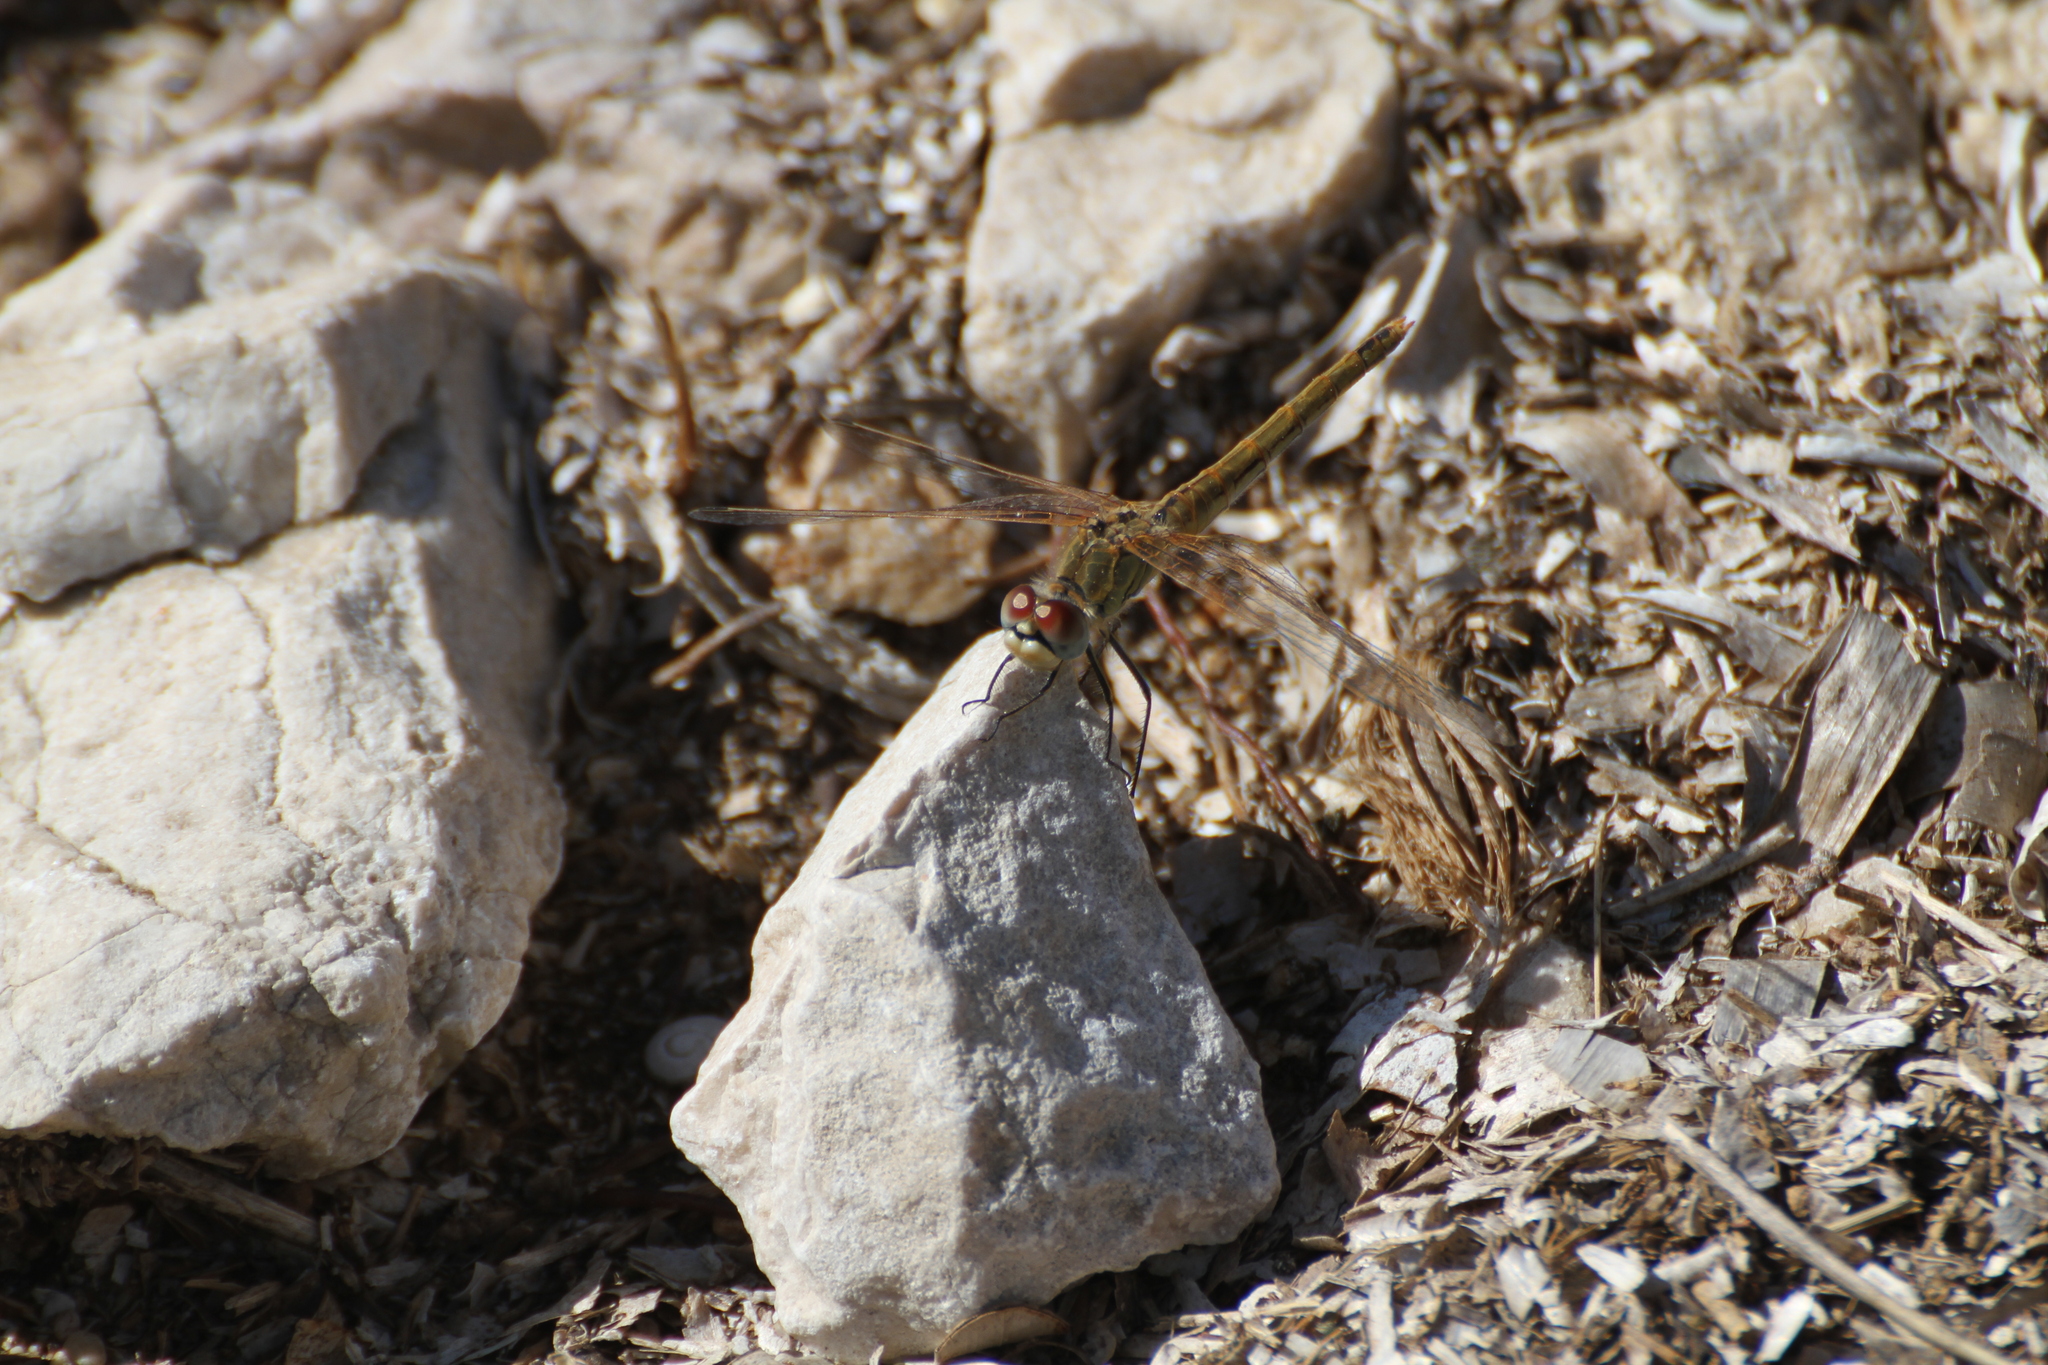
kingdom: Animalia
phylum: Arthropoda
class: Insecta
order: Odonata
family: Libellulidae
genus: Sympetrum
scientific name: Sympetrum fonscolombii
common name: Red-veined darter
